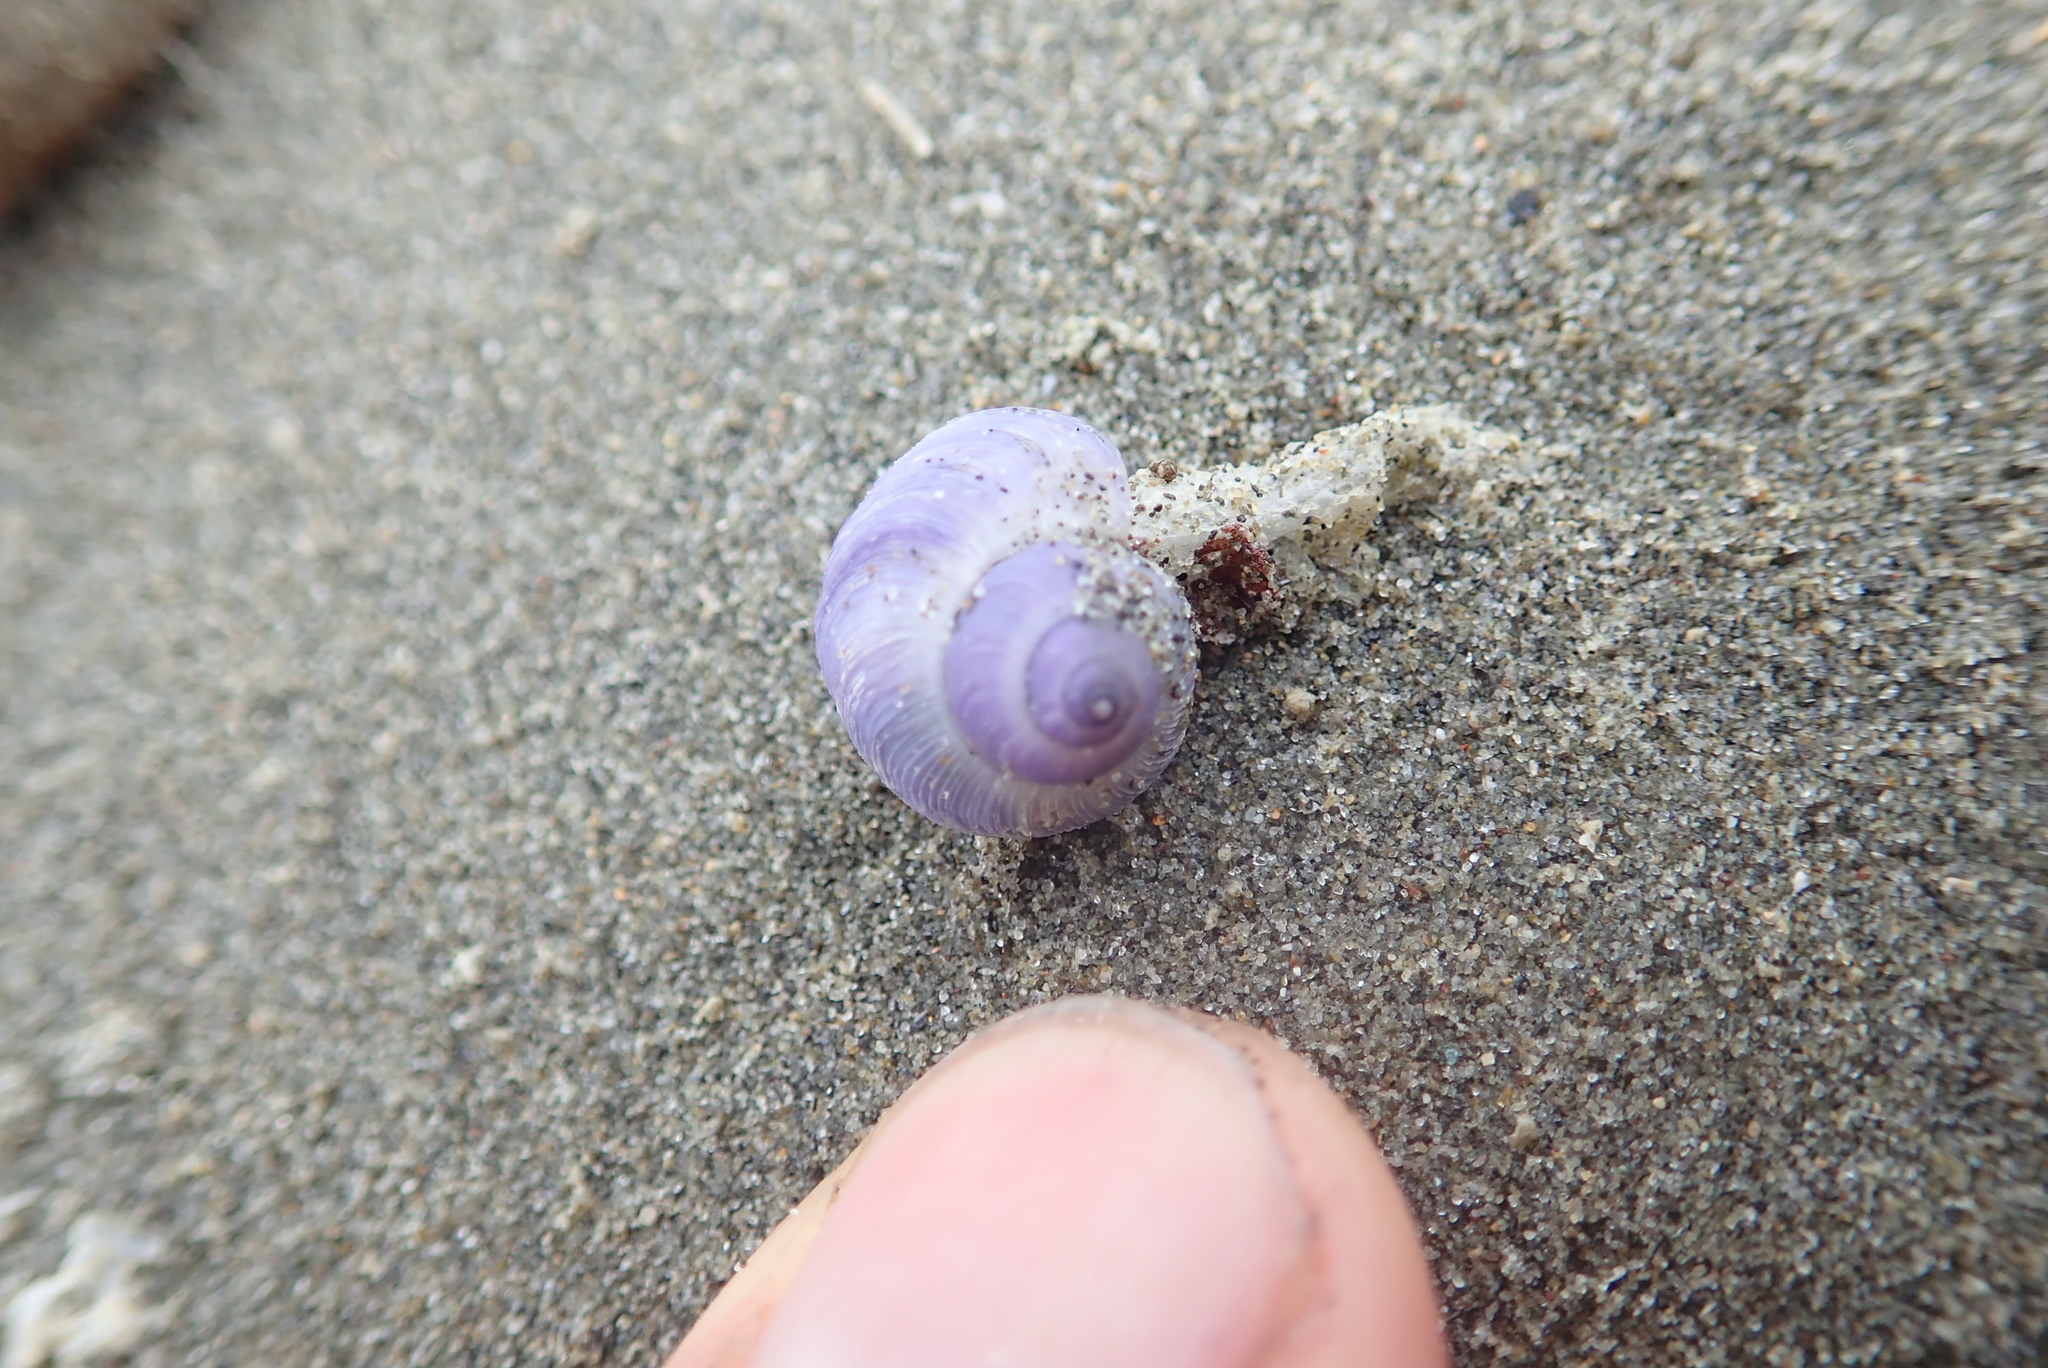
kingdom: Animalia
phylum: Mollusca
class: Gastropoda
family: Epitoniidae
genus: Janthina
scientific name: Janthina exigua
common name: Dwarf janthina
